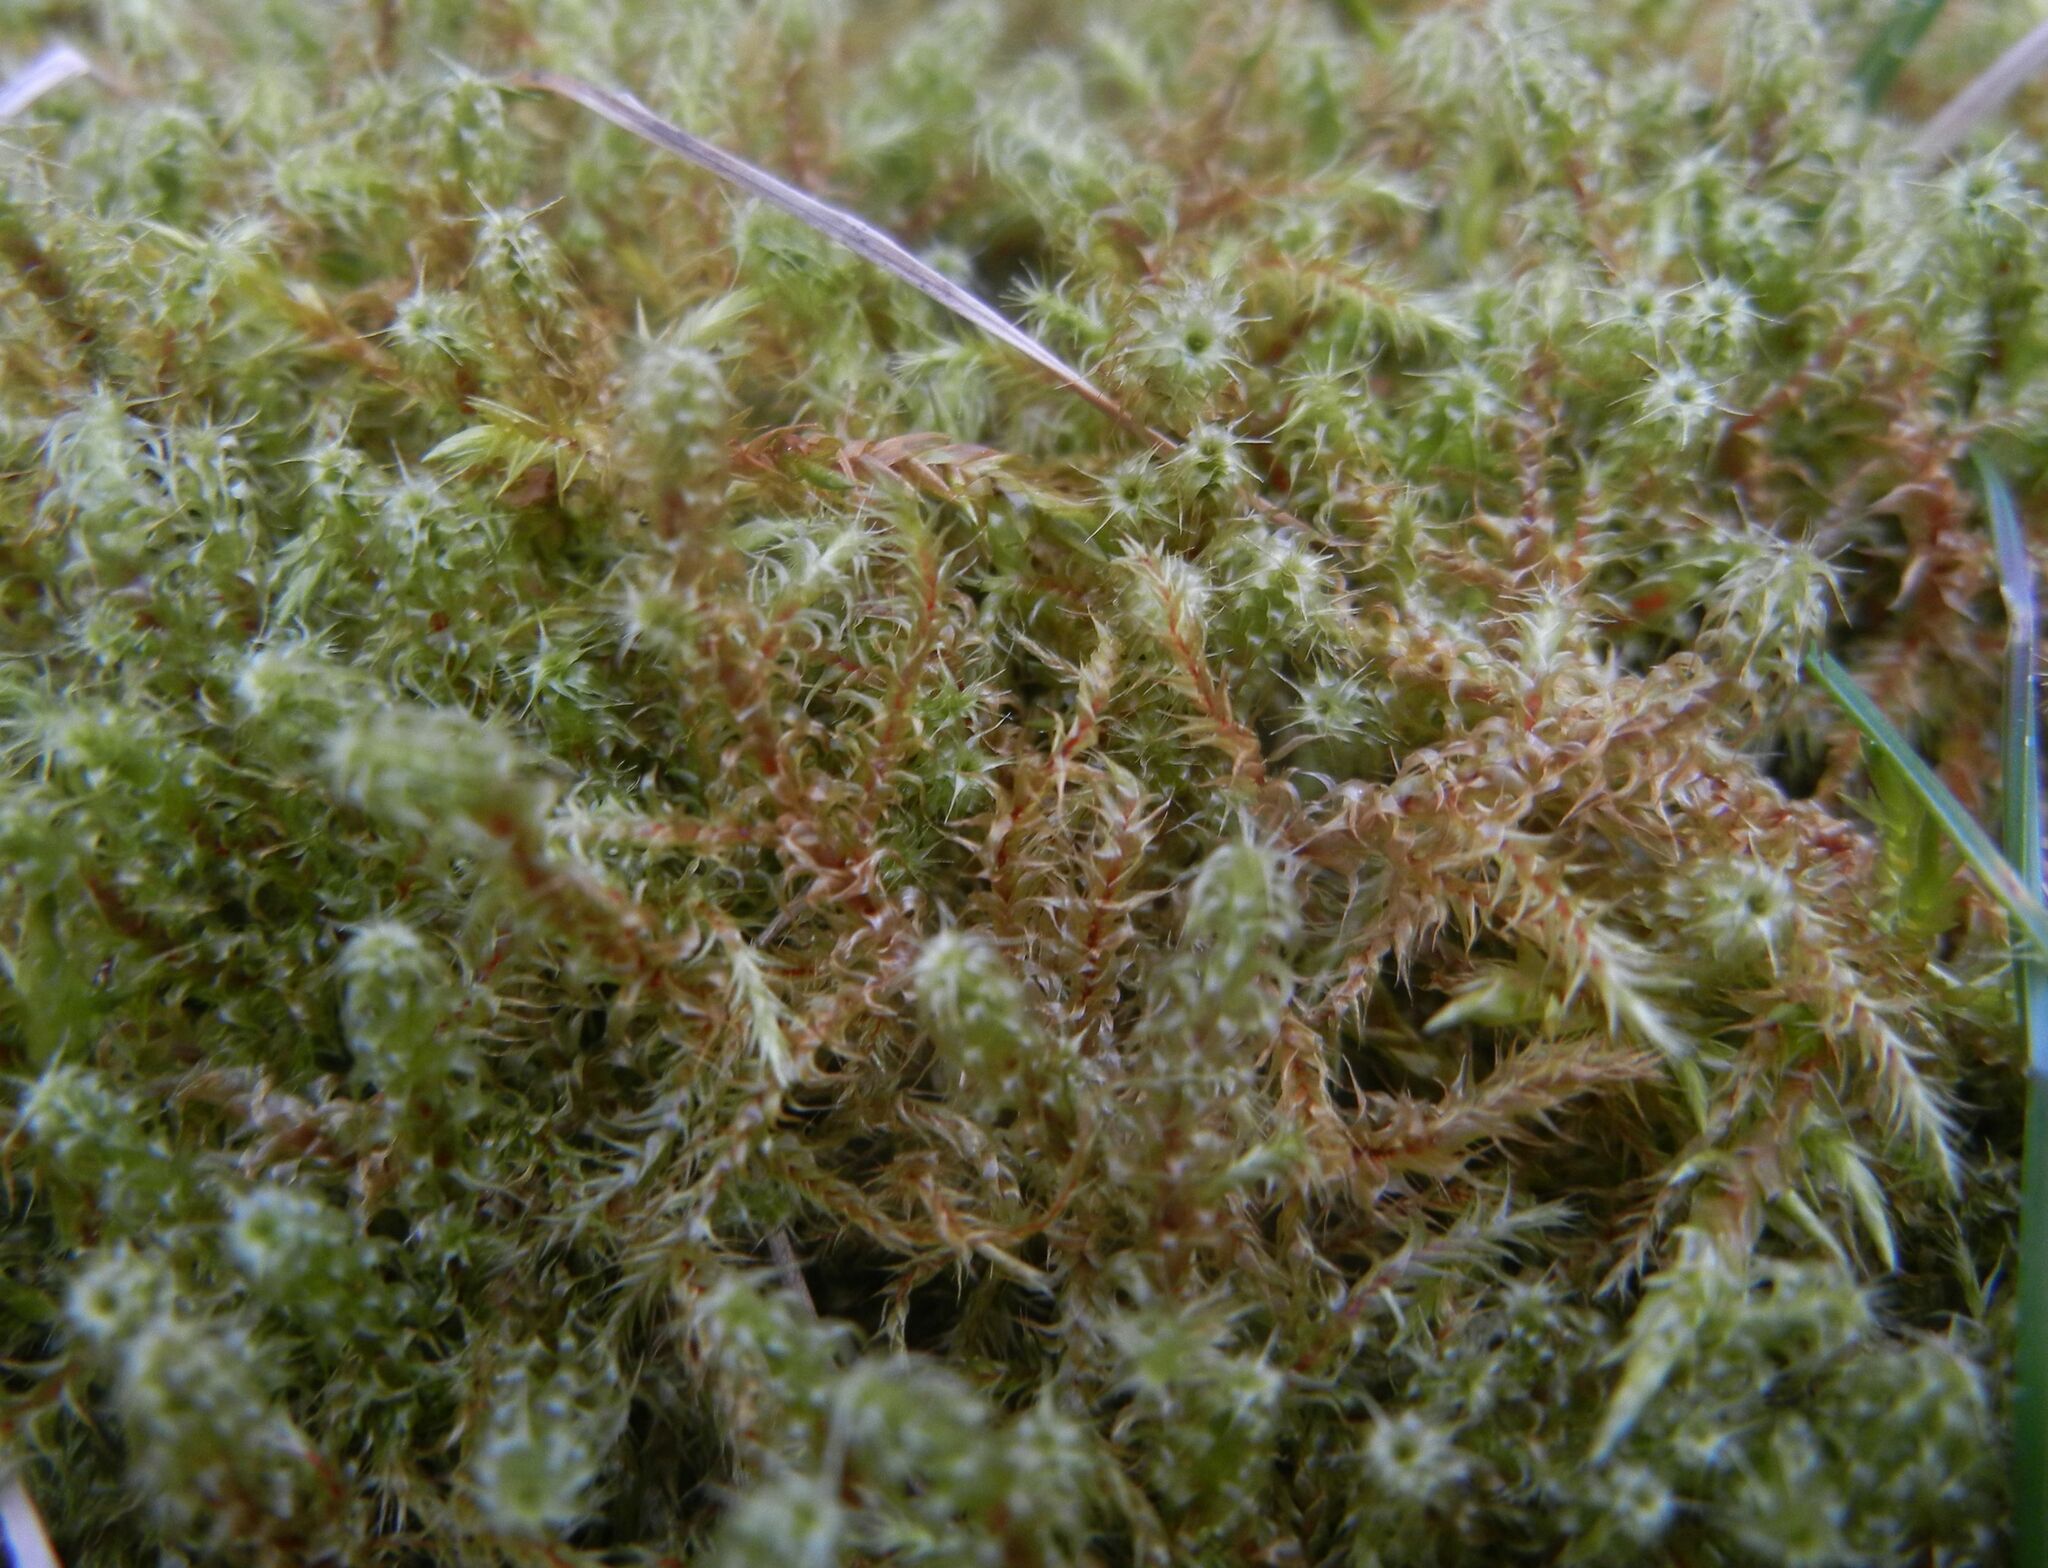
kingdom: Plantae
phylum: Bryophyta
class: Bryopsida
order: Hypnales
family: Hylocomiaceae
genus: Rhytidiadelphus
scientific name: Rhytidiadelphus squarrosus
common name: Springy turf-moss
